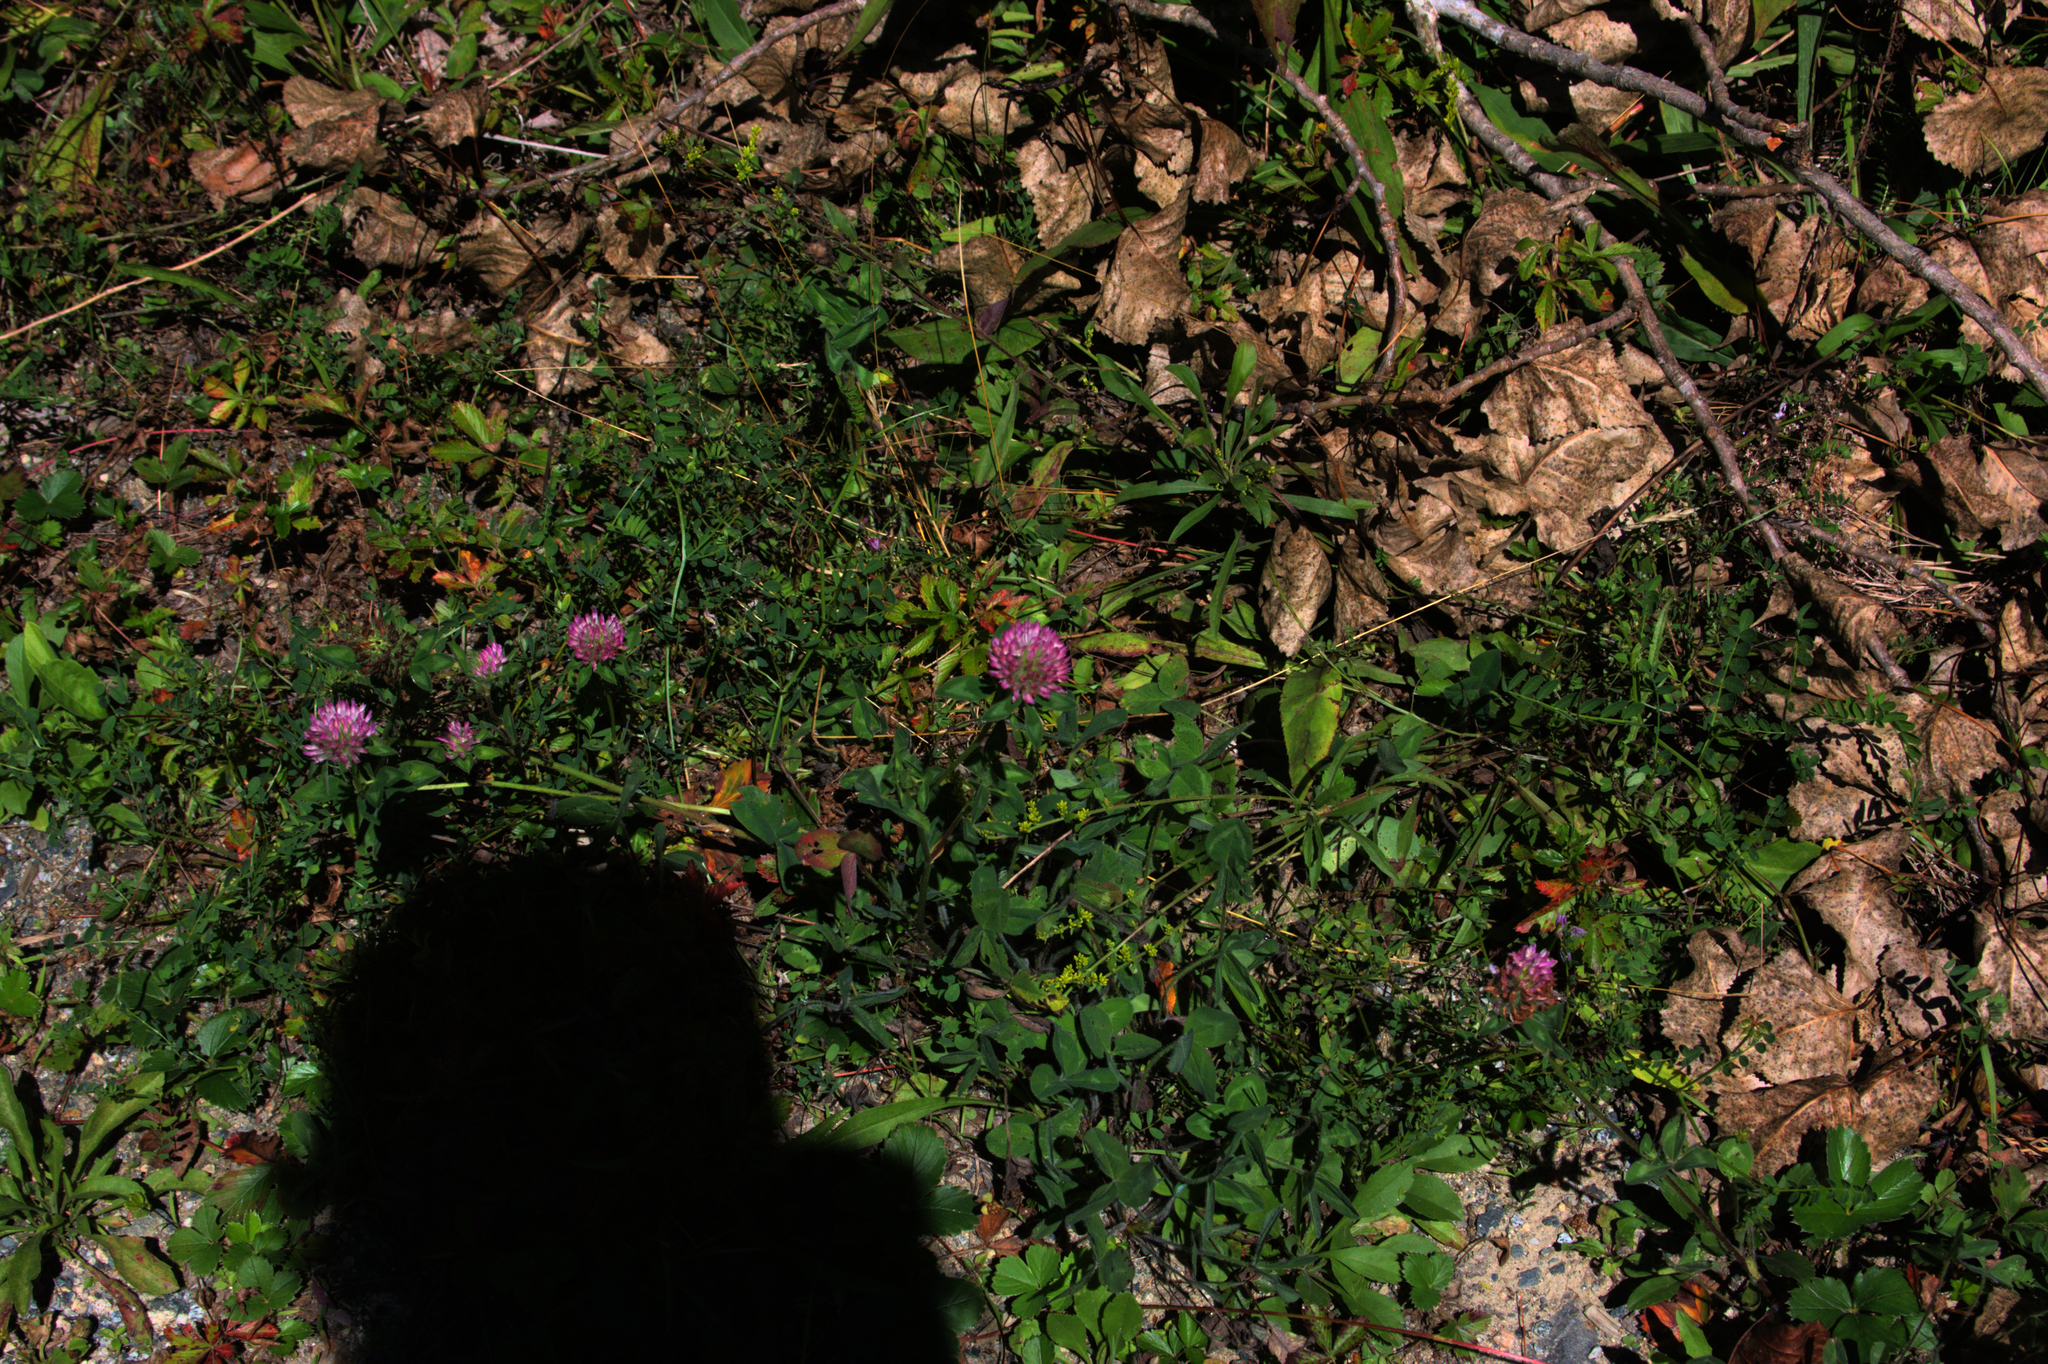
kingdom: Plantae
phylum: Tracheophyta
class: Magnoliopsida
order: Fabales
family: Fabaceae
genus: Trifolium
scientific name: Trifolium pratense
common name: Red clover
